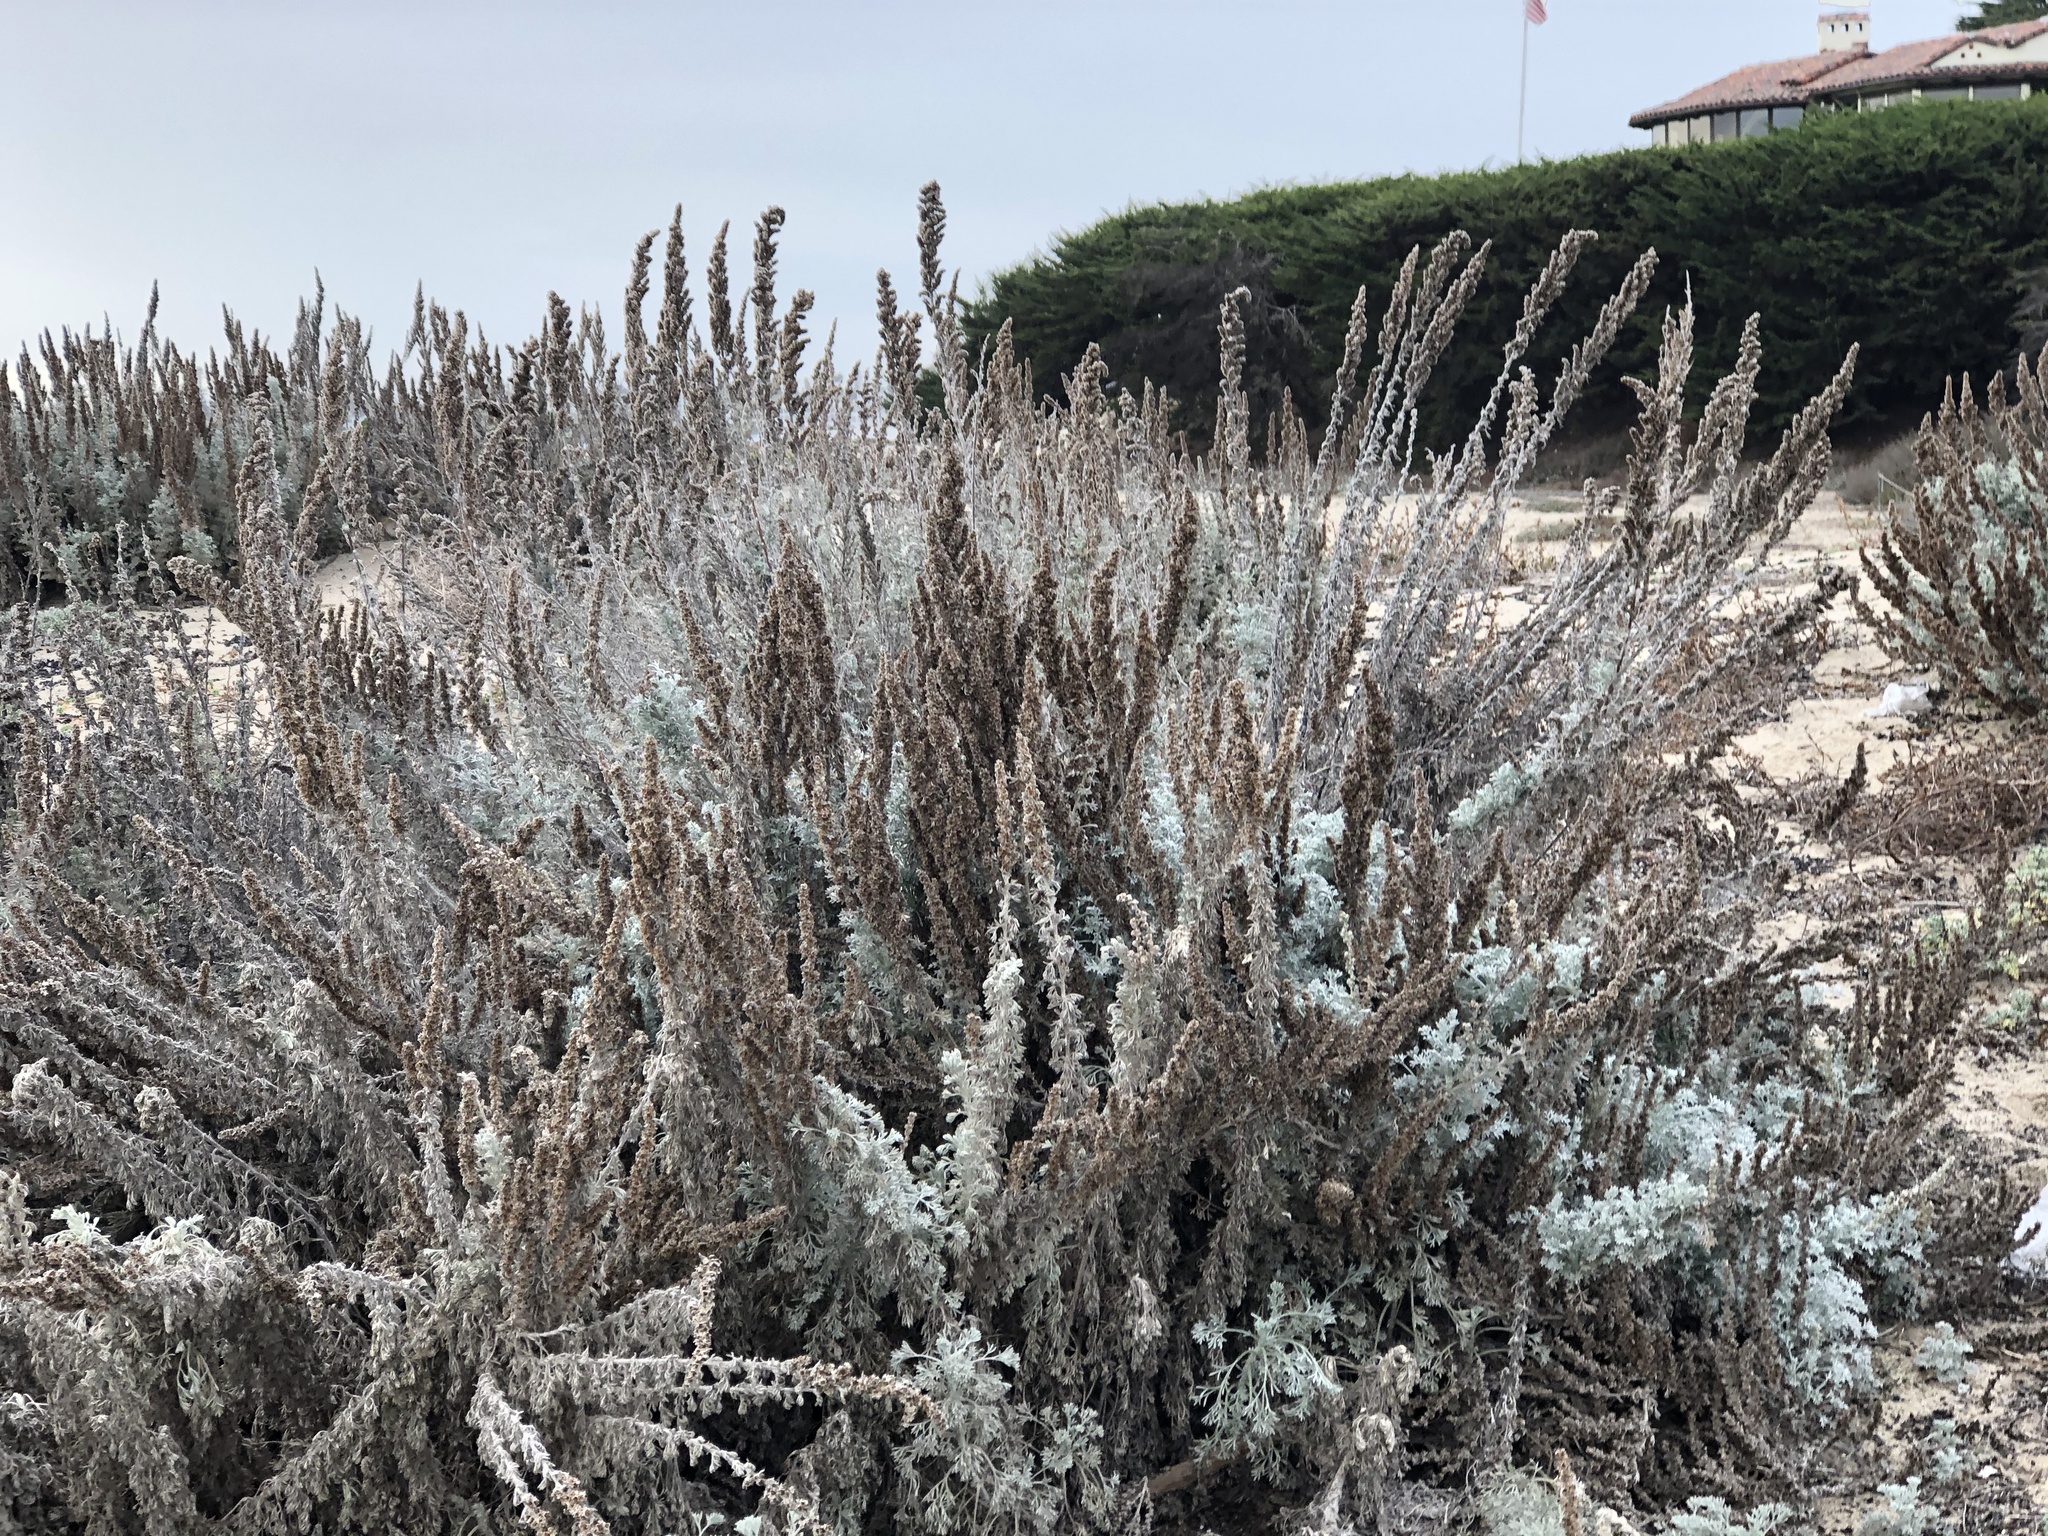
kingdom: Plantae
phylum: Tracheophyta
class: Magnoliopsida
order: Asterales
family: Asteraceae
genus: Artemisia
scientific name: Artemisia pycnocephala
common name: Coastal sagewort
